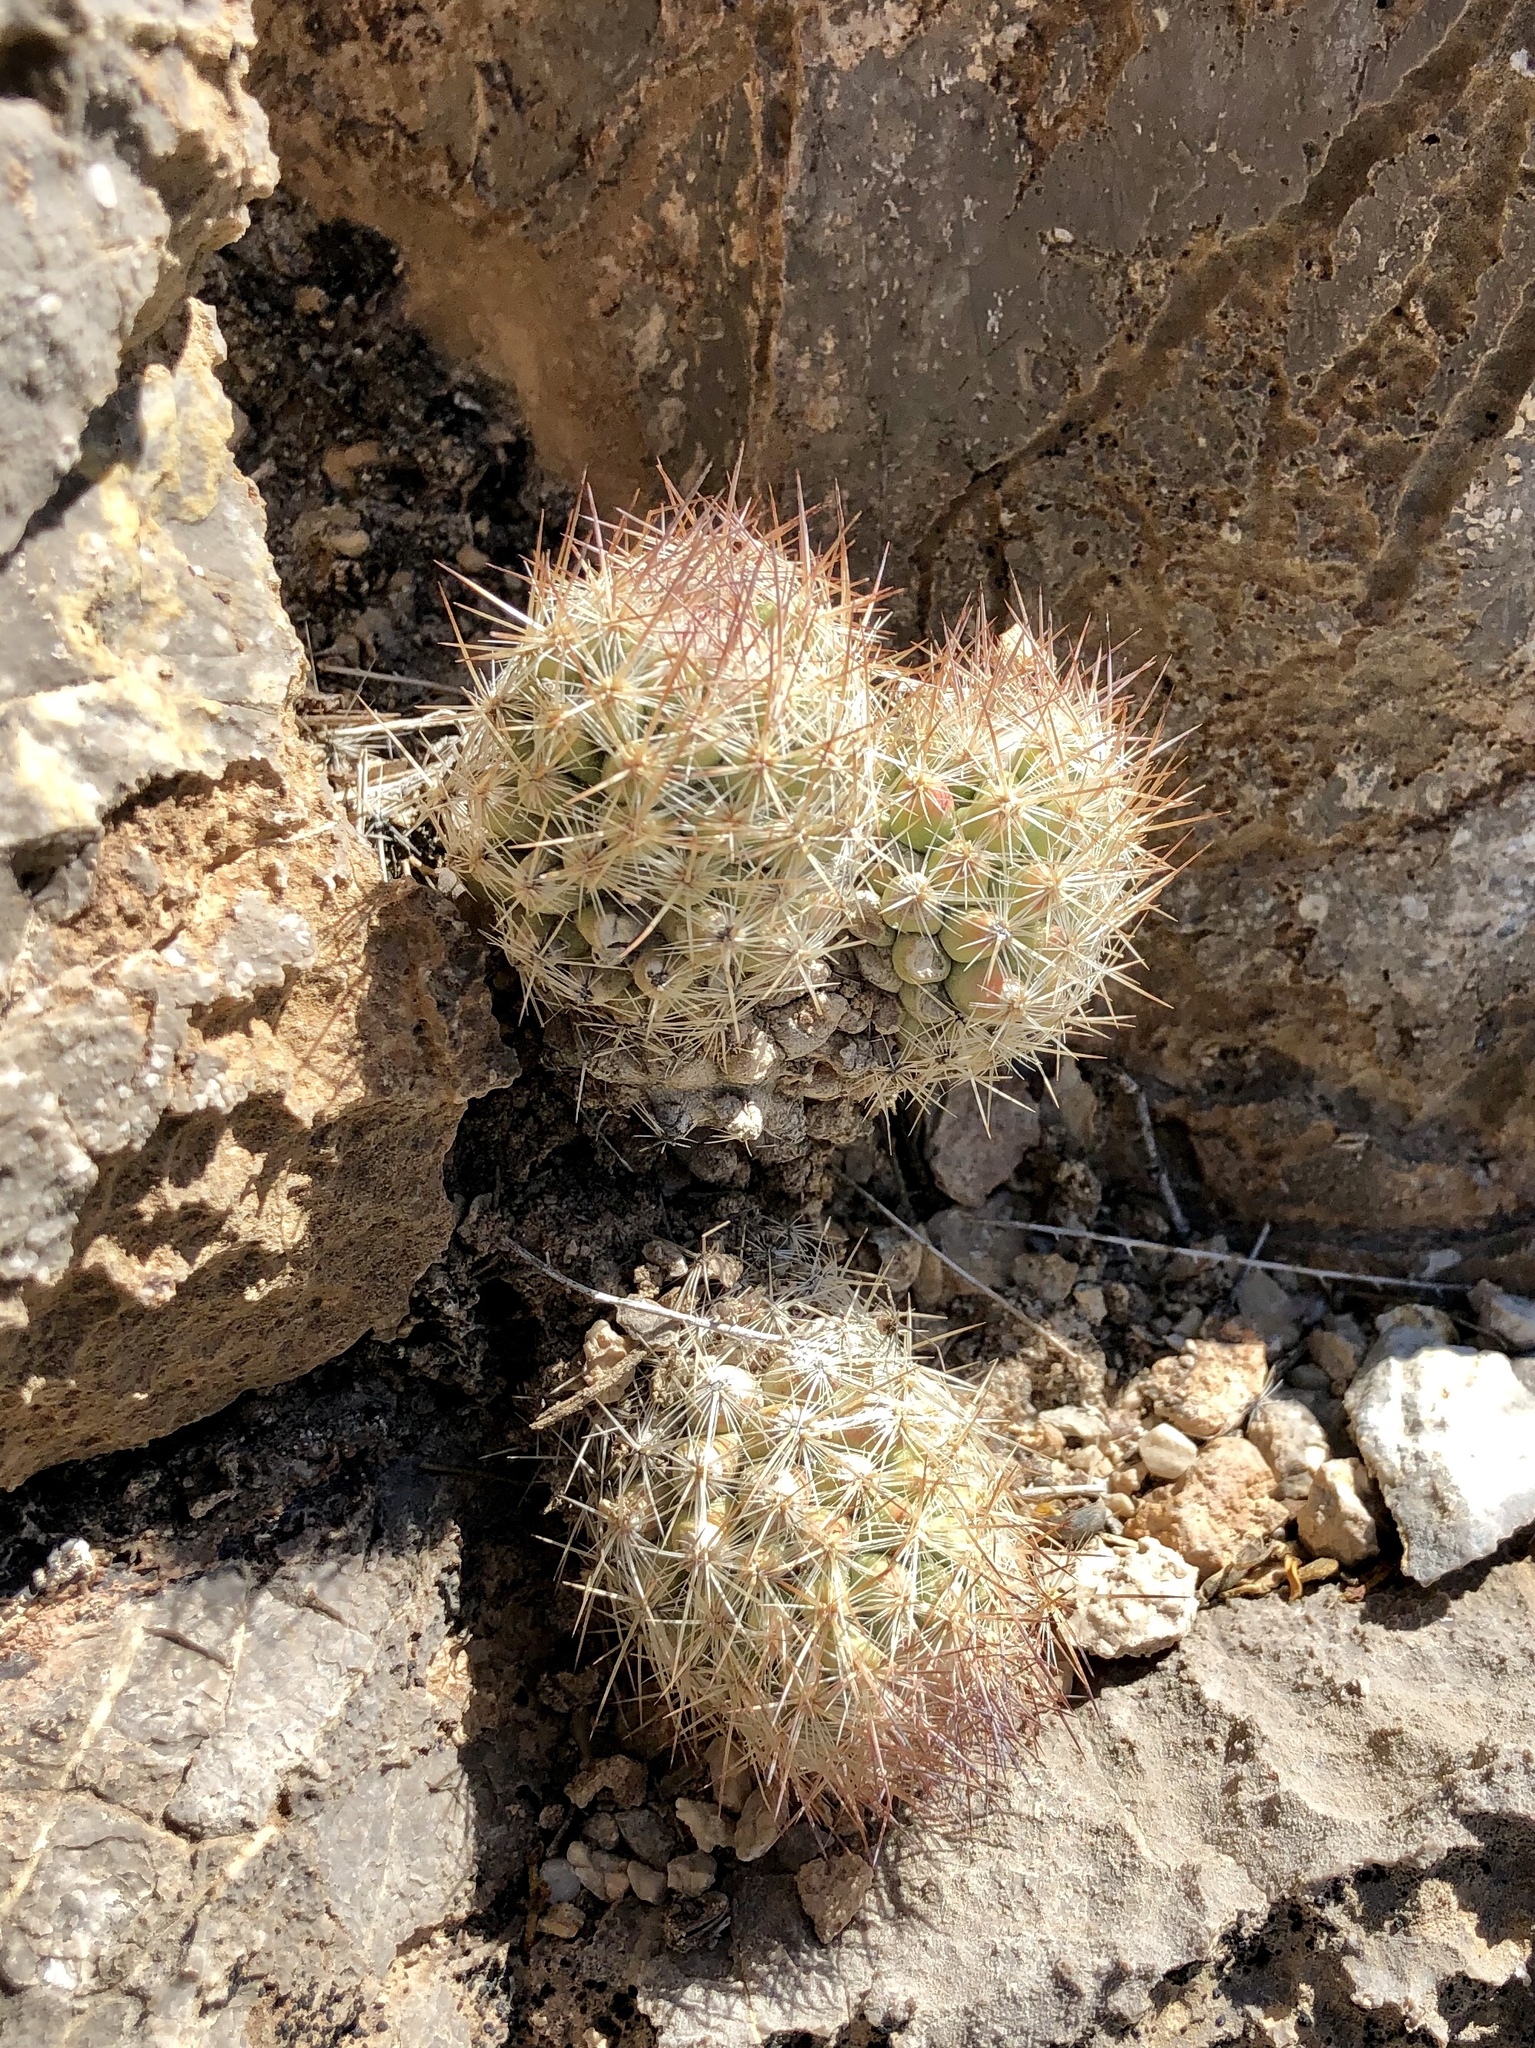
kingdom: Plantae
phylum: Tracheophyta
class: Magnoliopsida
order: Caryophyllales
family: Cactaceae
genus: Pelecyphora
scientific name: Pelecyphora tuberculosa
